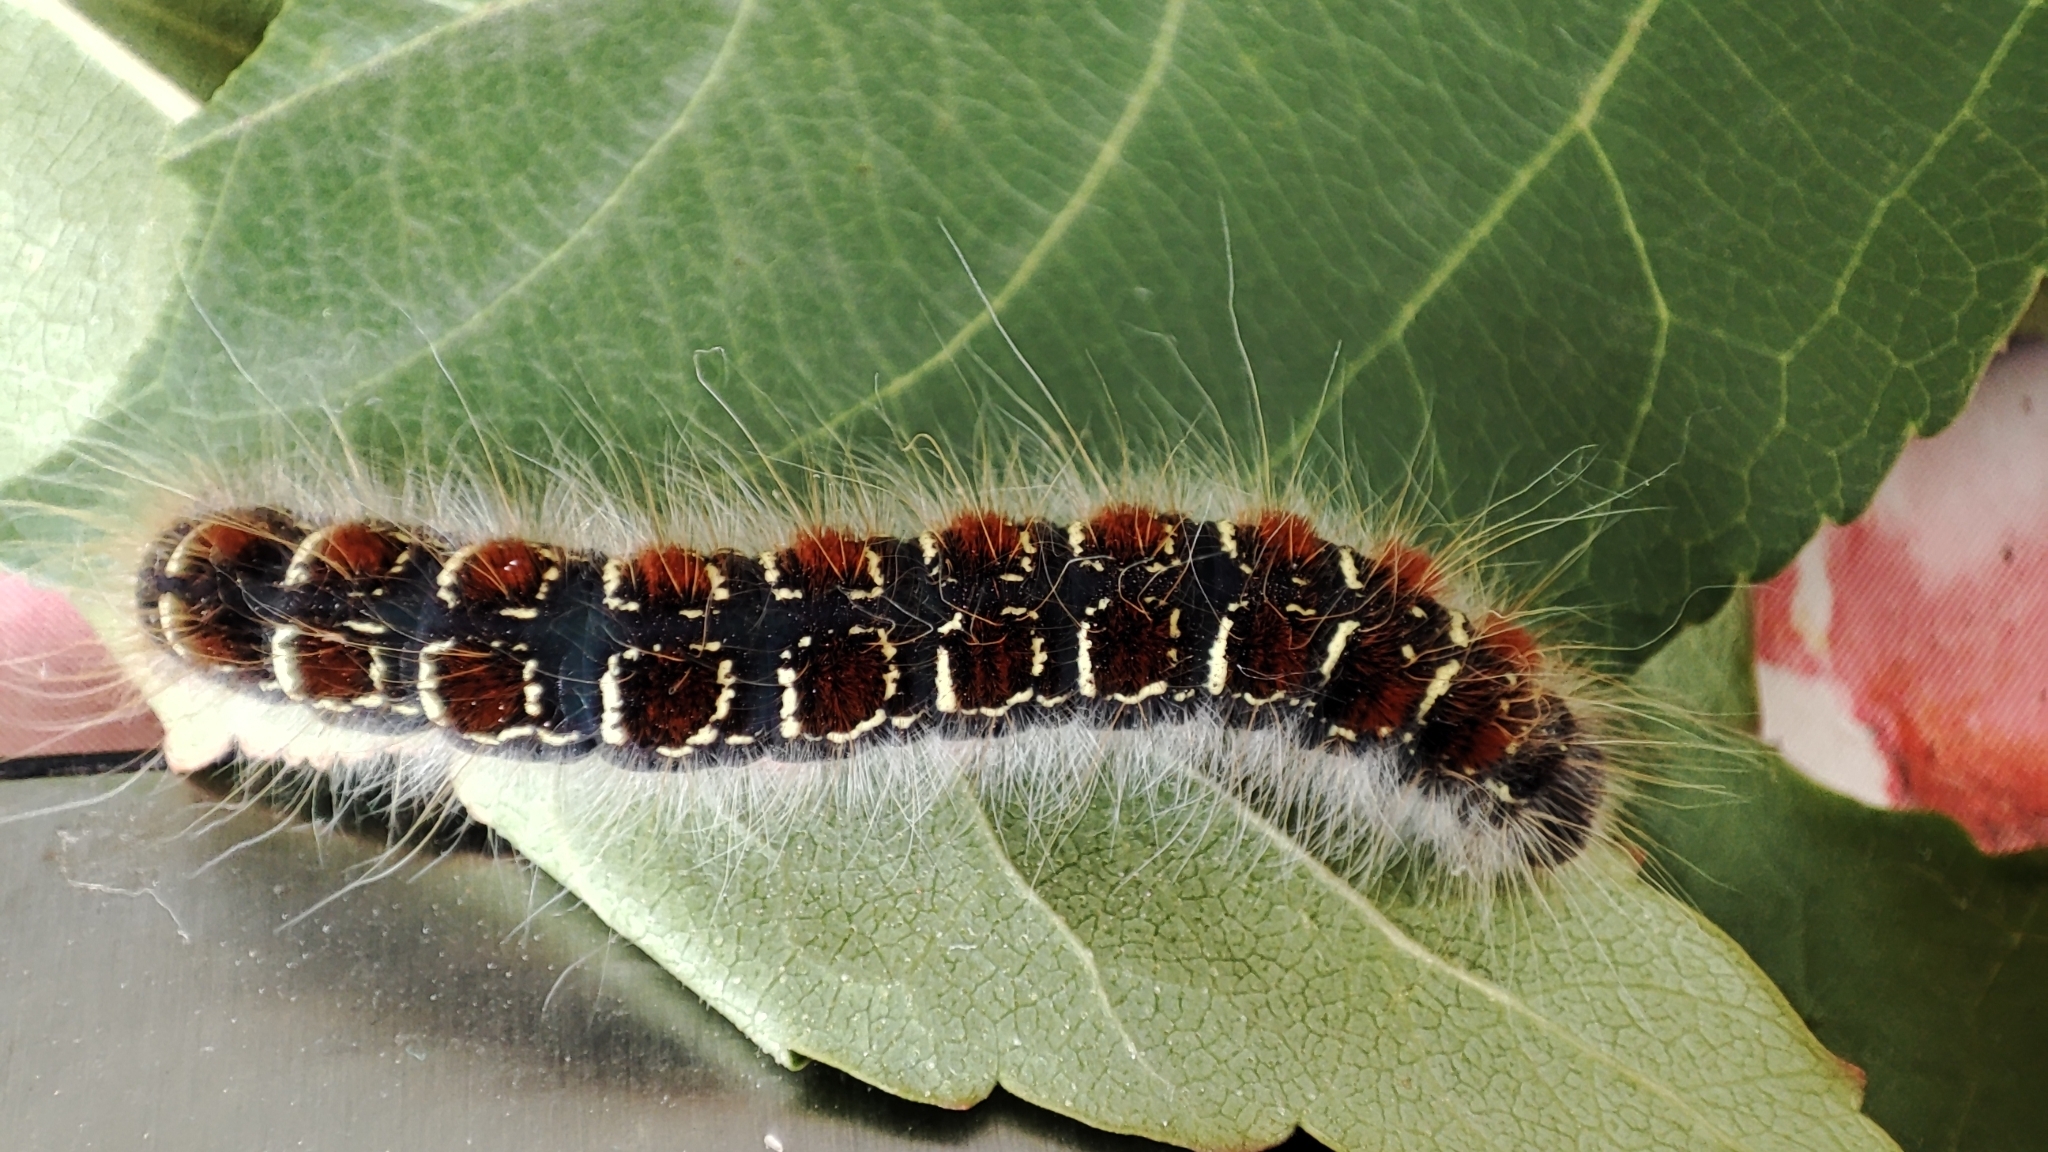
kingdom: Animalia
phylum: Arthropoda
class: Insecta
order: Lepidoptera
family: Lasiocampidae
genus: Eriogaster
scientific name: Eriogaster lanestris
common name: Small eggar
